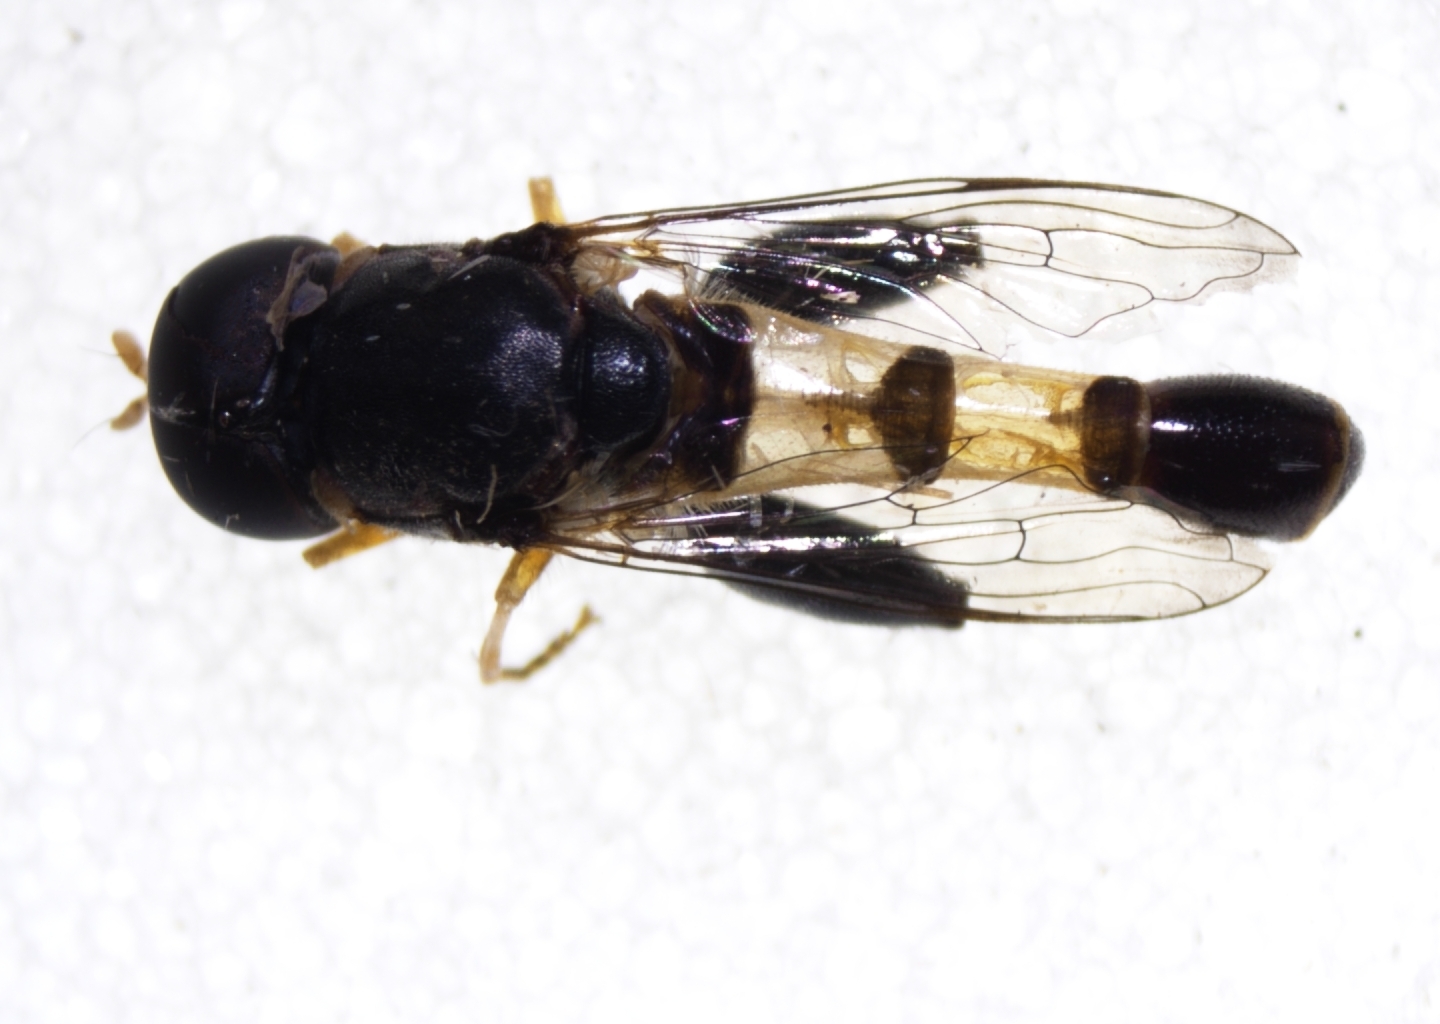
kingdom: Animalia
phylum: Arthropoda
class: Insecta
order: Diptera
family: Syrphidae
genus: Syritta
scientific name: Syritta aenigmatopatria
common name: Syrphid fly
